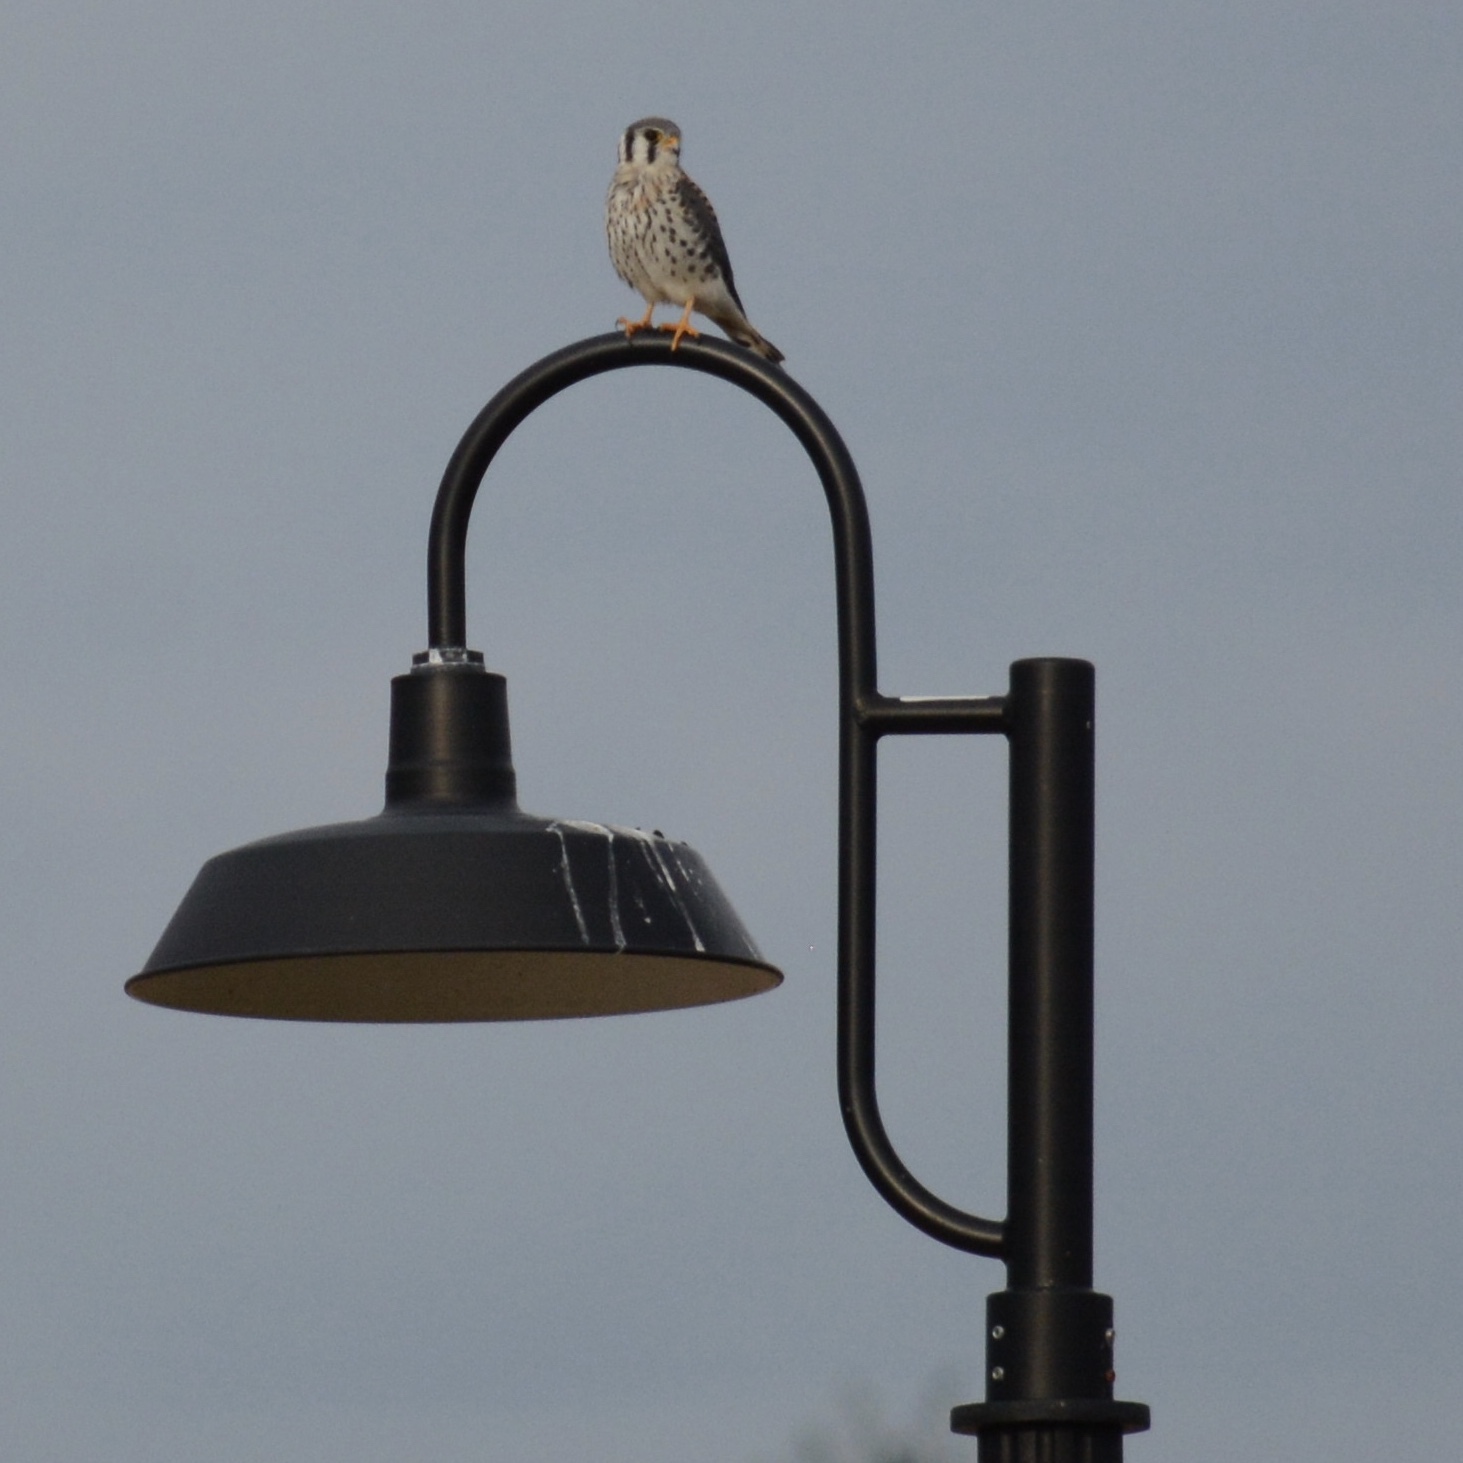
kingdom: Animalia
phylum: Chordata
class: Aves
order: Falconiformes
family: Falconidae
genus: Falco
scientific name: Falco sparverius
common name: American kestrel
